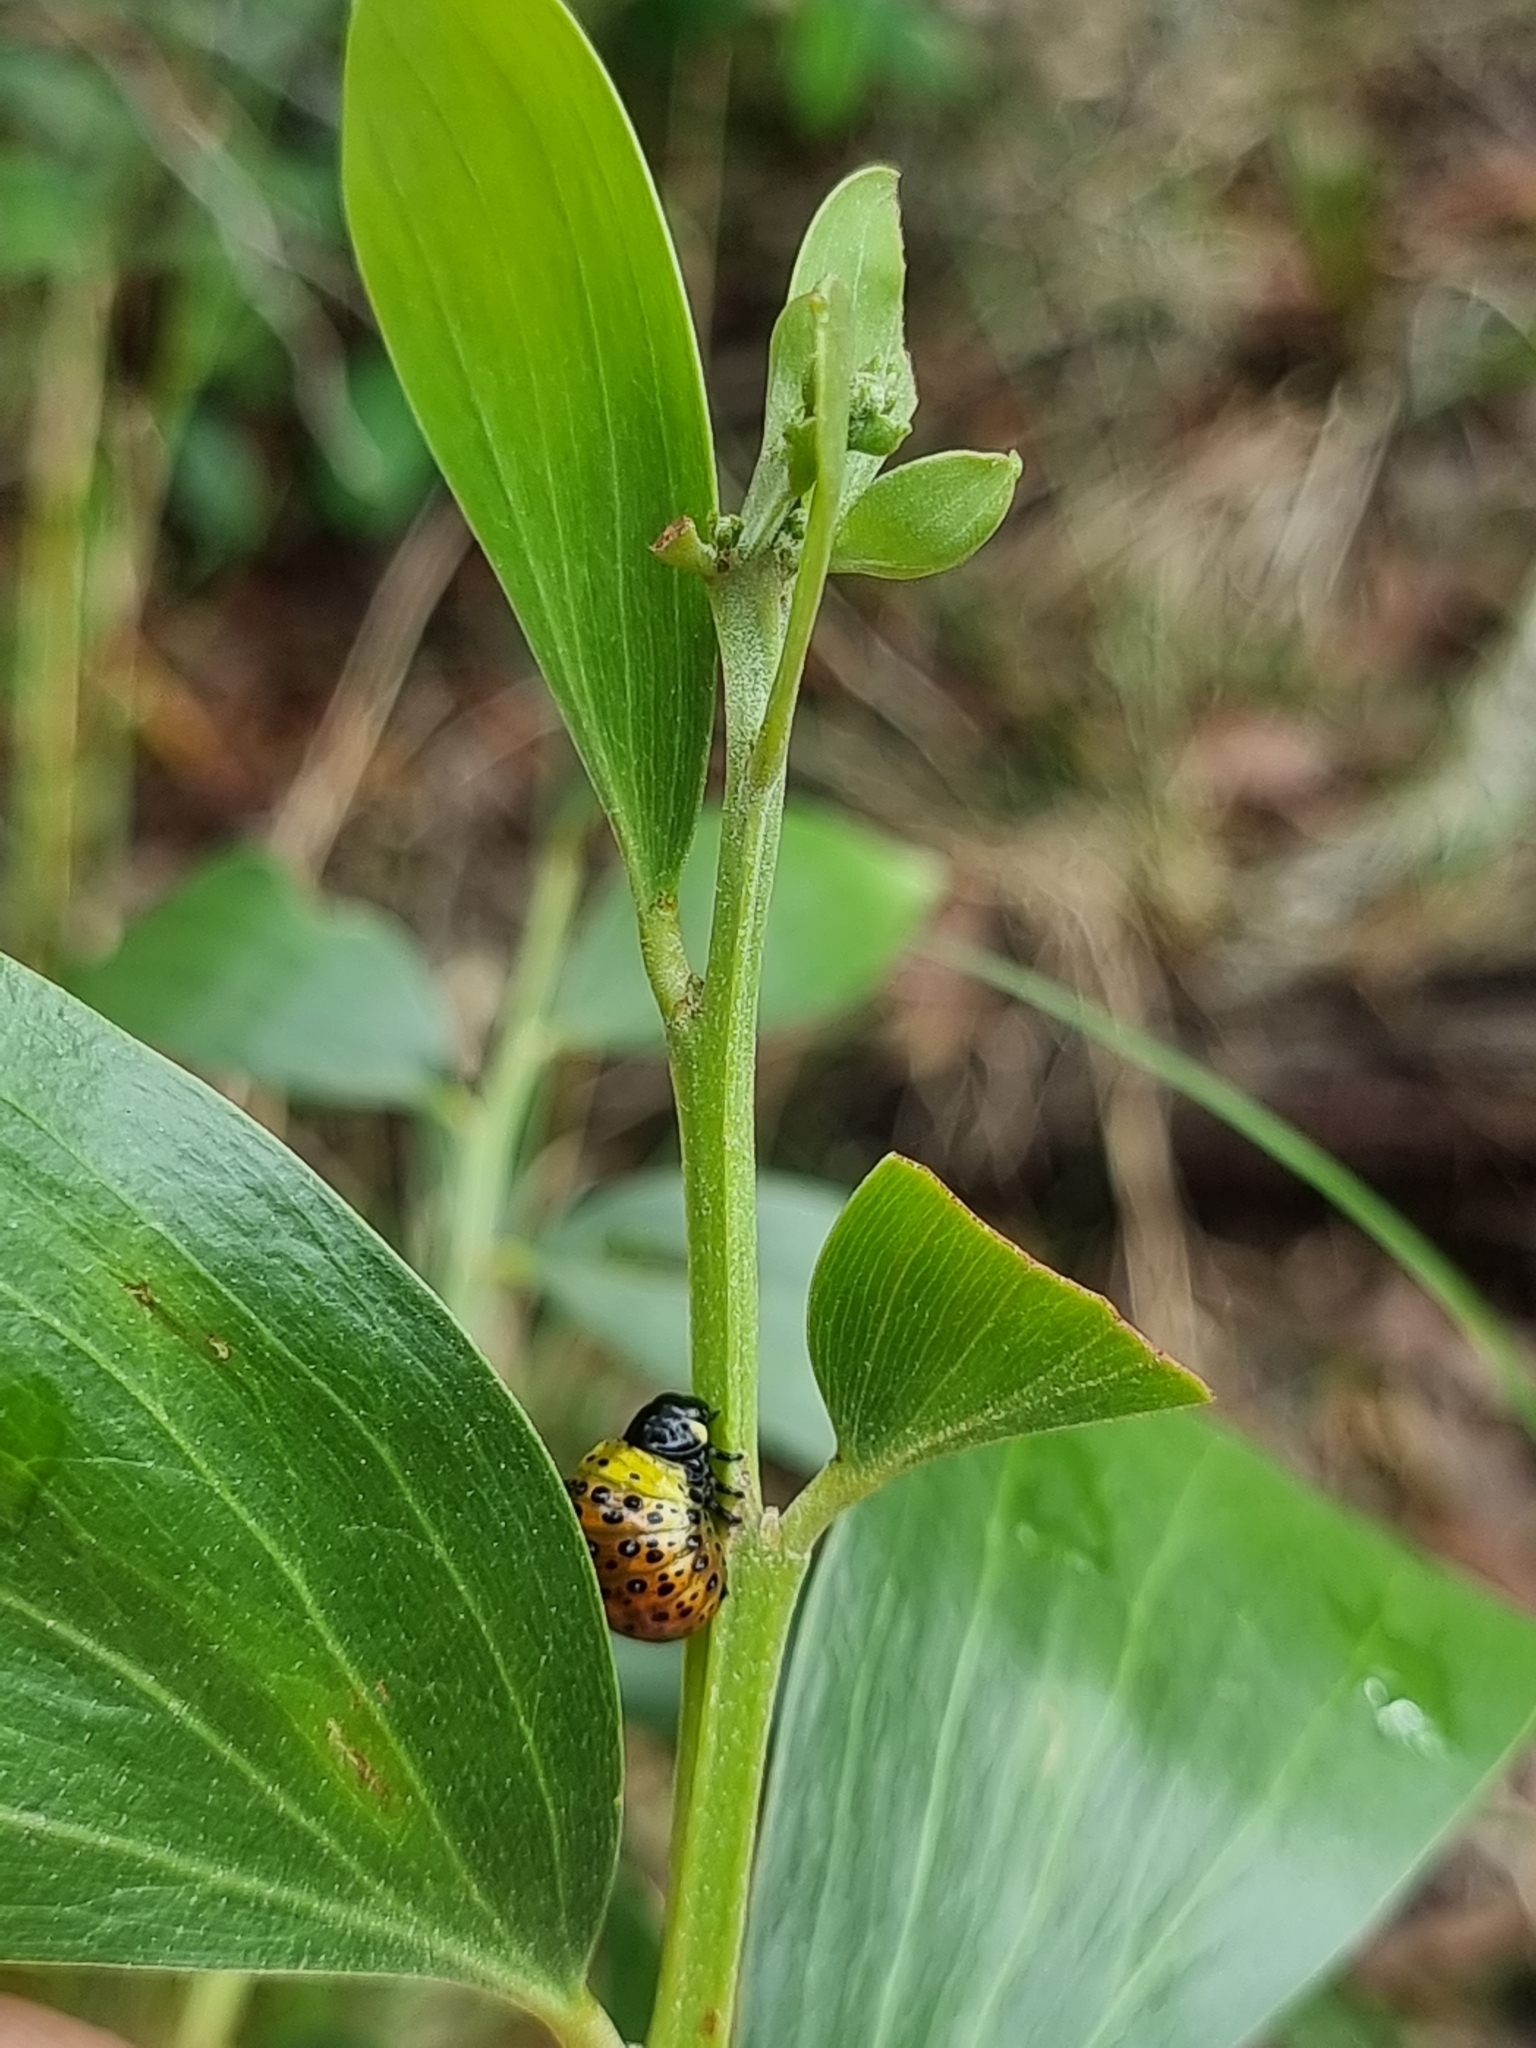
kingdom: Animalia
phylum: Arthropoda
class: Insecta
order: Coleoptera
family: Chrysomelidae
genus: Dicranosterna
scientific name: Dicranosterna
